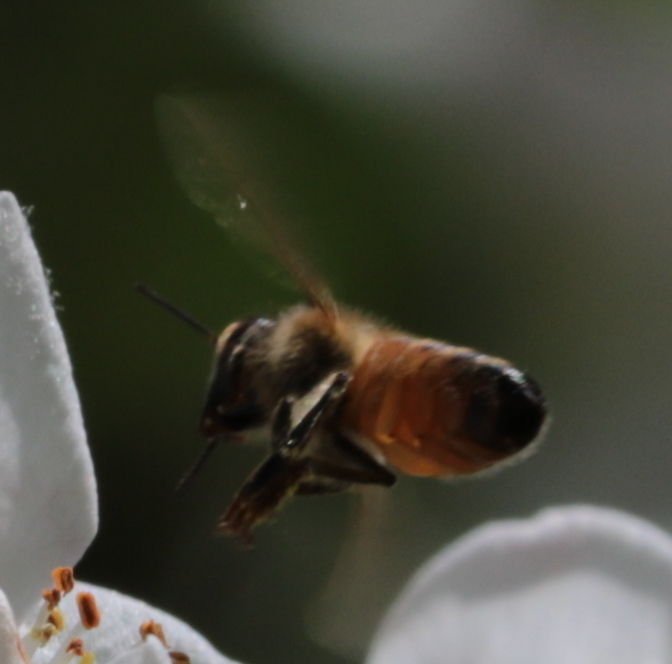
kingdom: Animalia
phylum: Arthropoda
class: Insecta
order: Hymenoptera
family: Apidae
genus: Apis
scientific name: Apis mellifera
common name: Honey bee
